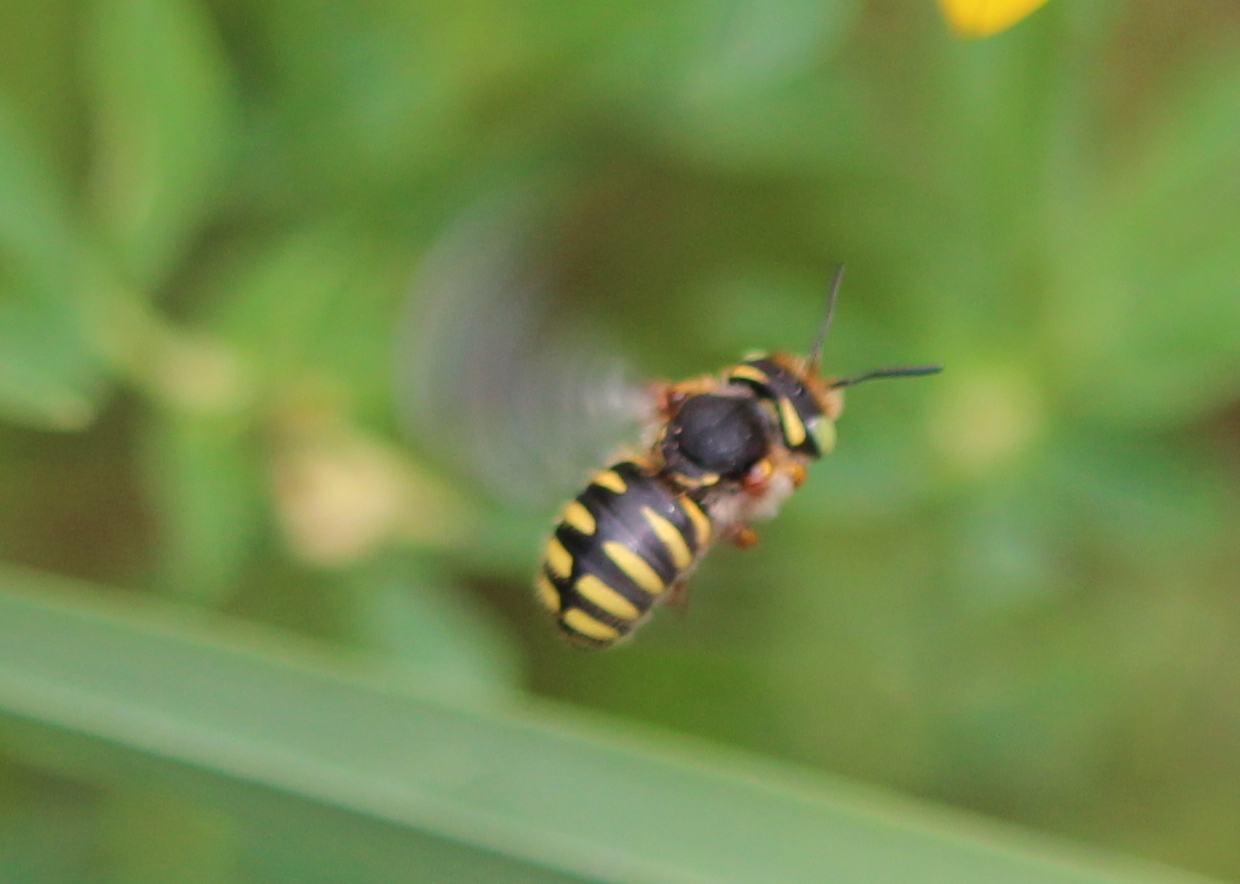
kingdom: Animalia
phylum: Arthropoda
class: Insecta
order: Hymenoptera
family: Megachilidae
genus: Anthidium
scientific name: Anthidium oblongatum
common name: Oblong wool carder bee
